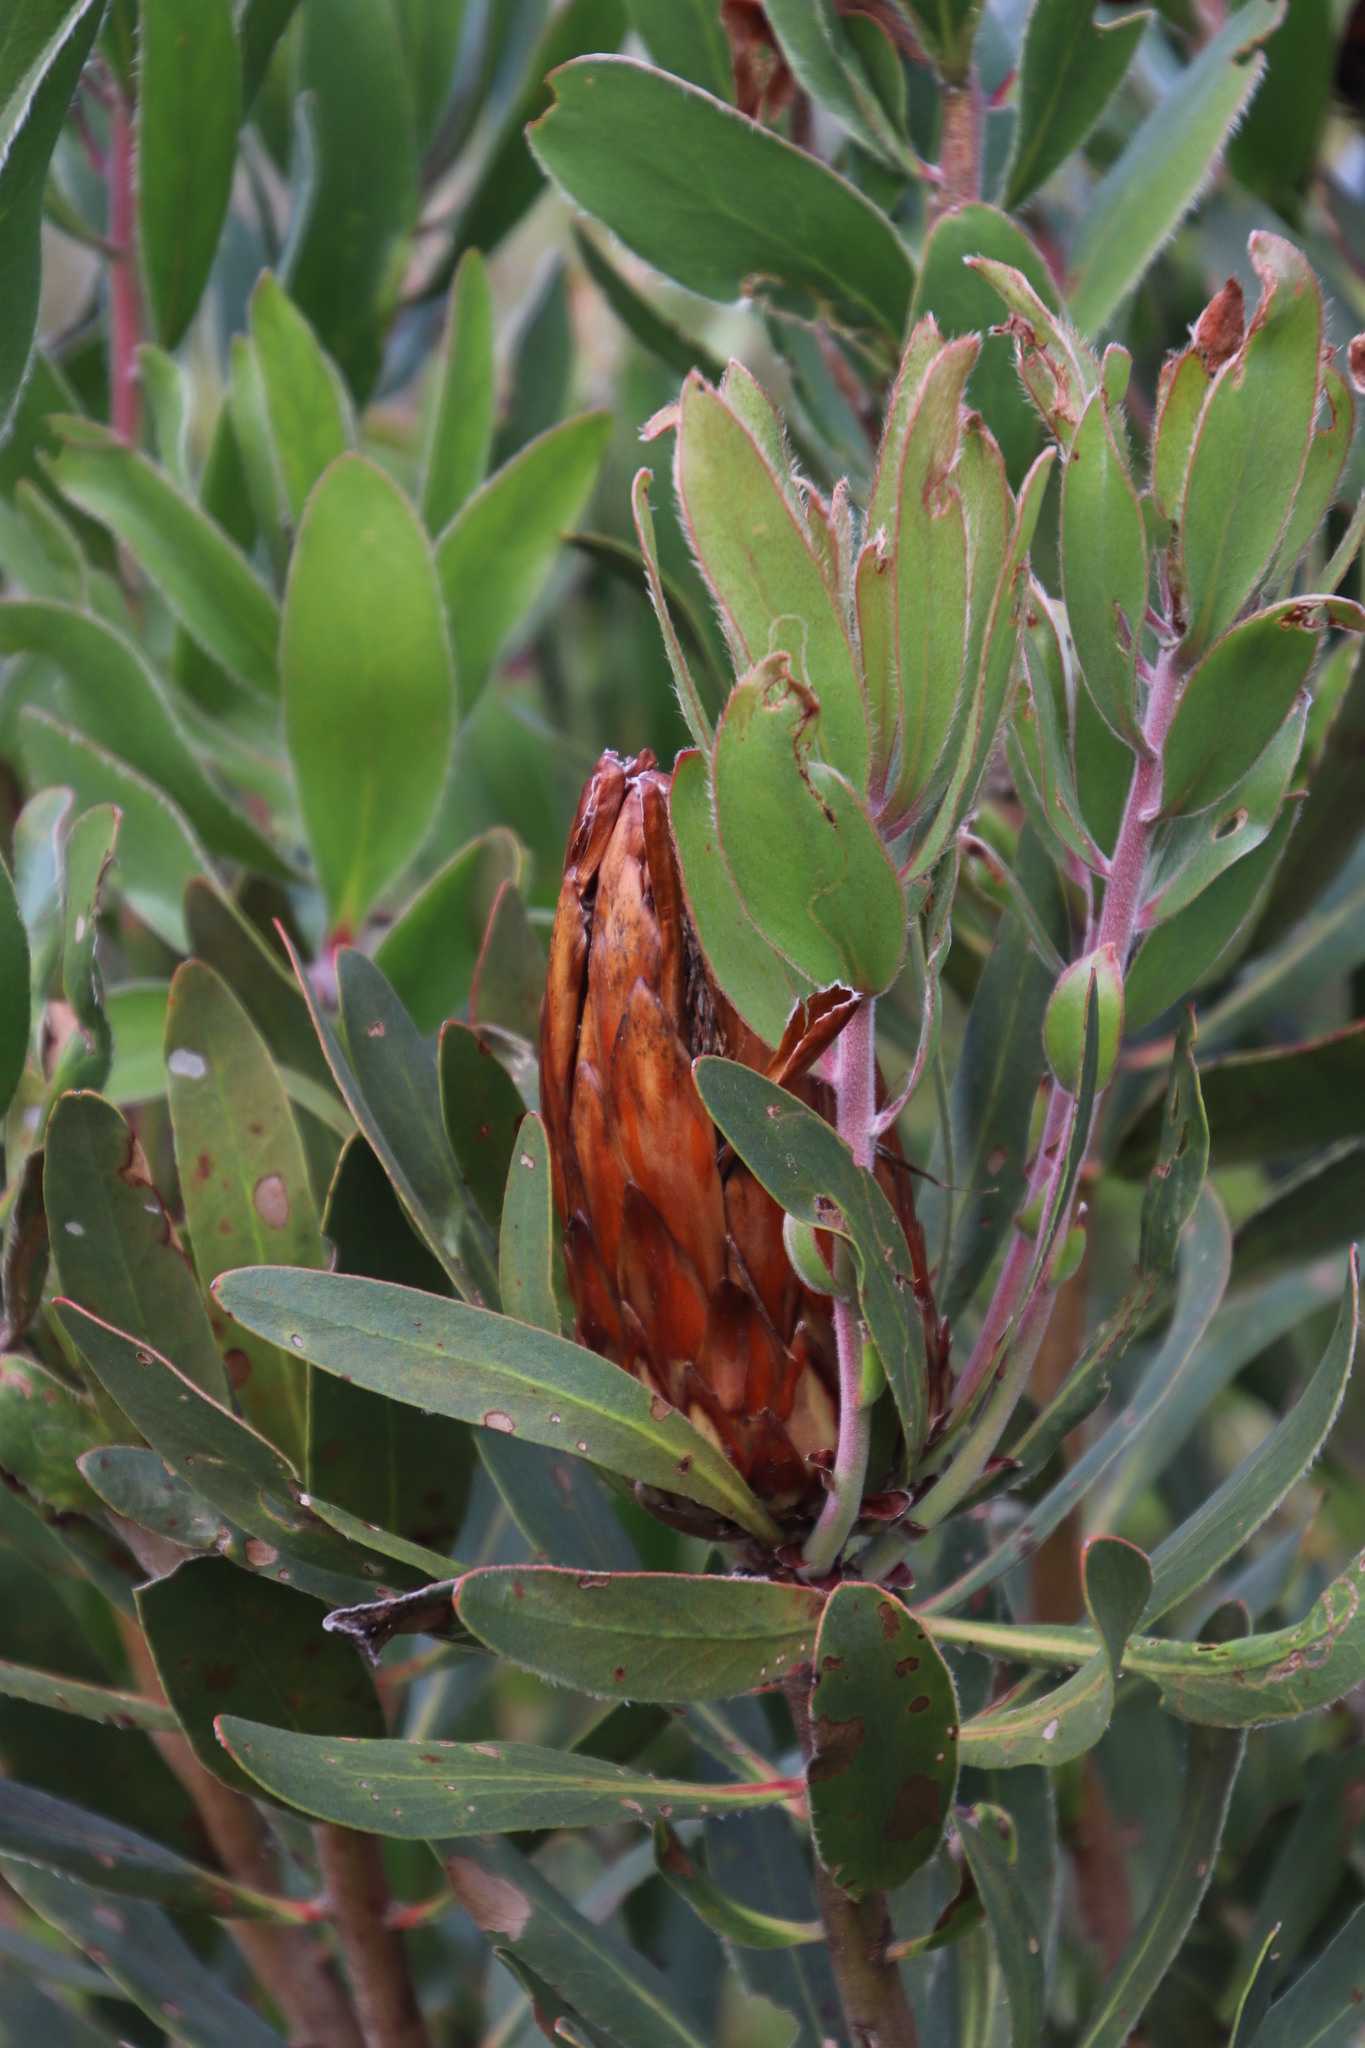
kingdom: Plantae
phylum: Tracheophyta
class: Magnoliopsida
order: Proteales
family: Proteaceae
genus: Protea
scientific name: Protea obtusifolia
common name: Bredasdorp sugarbush
